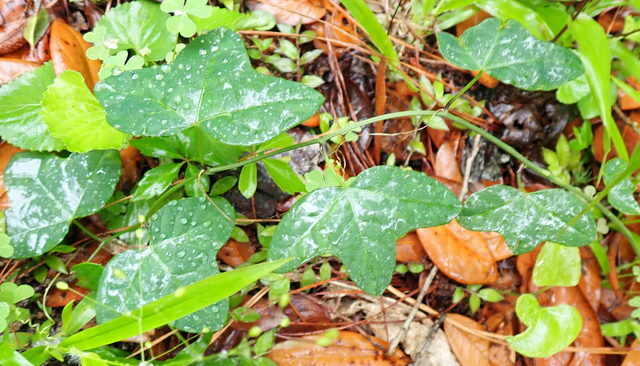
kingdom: Plantae
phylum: Tracheophyta
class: Magnoliopsida
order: Malpighiales
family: Passifloraceae
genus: Passiflora
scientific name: Passiflora lutea
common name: Yellow passionflower
